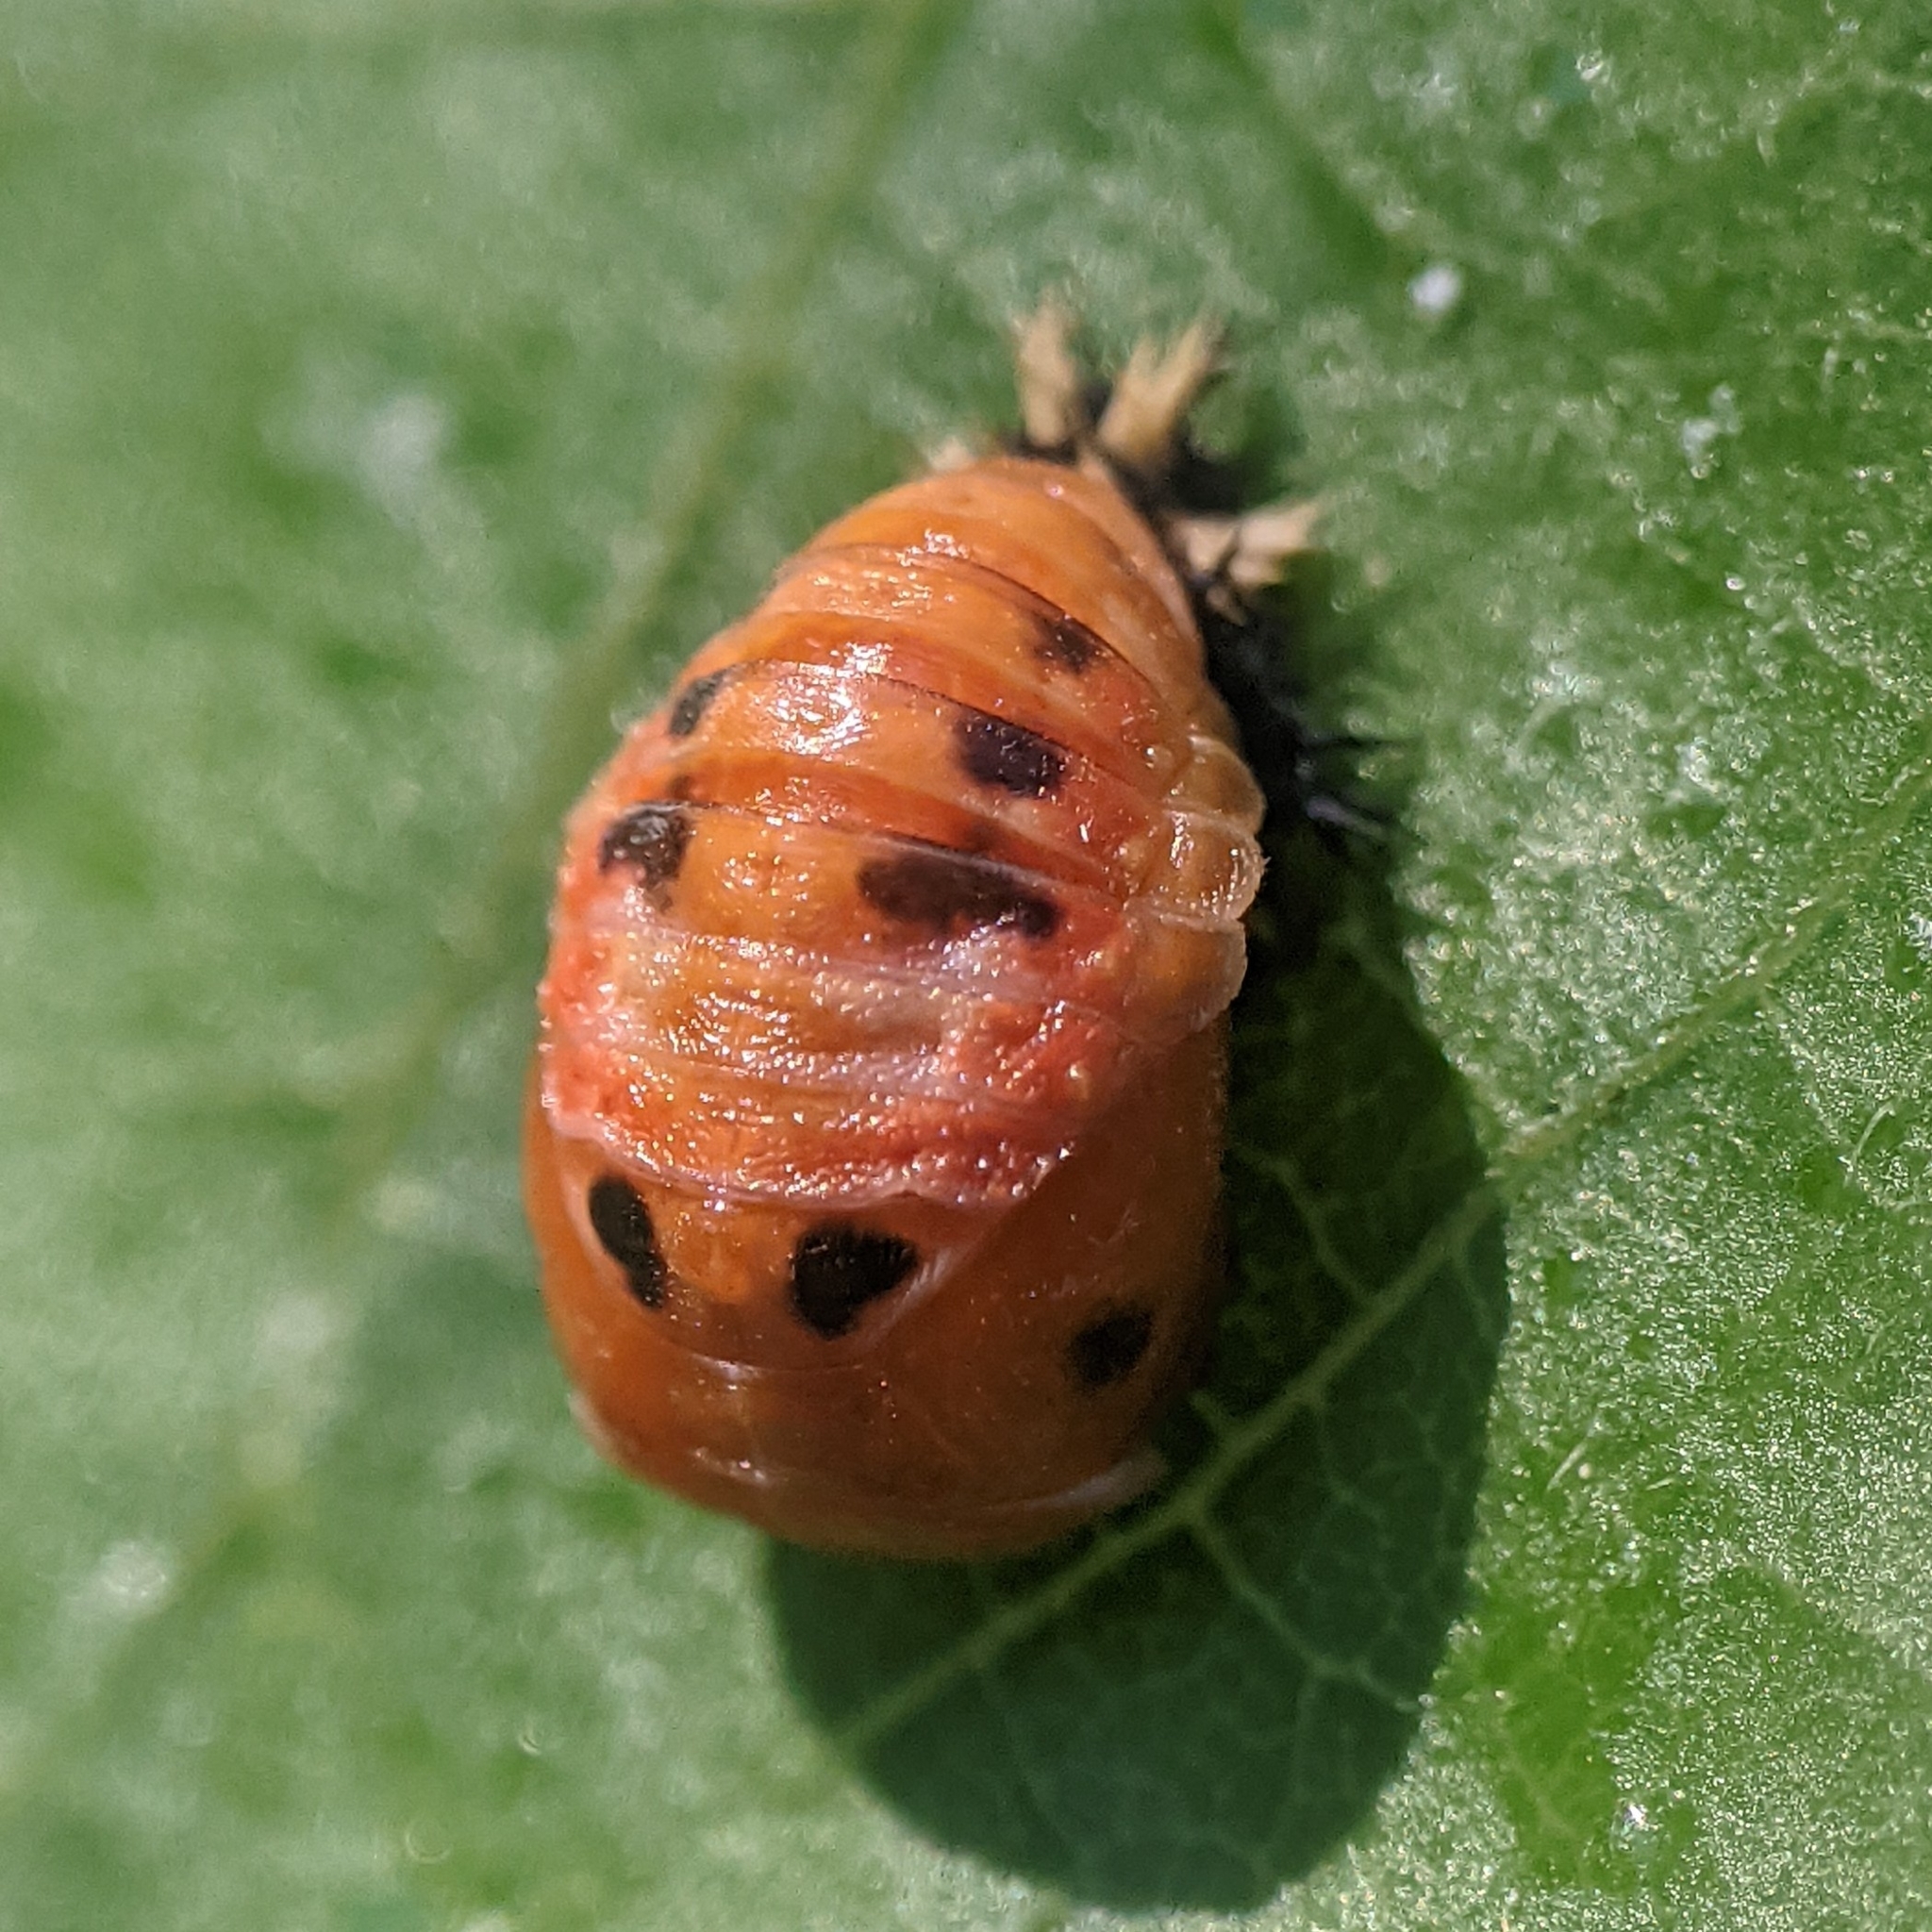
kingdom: Animalia
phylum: Arthropoda
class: Insecta
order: Coleoptera
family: Coccinellidae
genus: Harmonia
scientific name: Harmonia axyridis
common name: Harlequin ladybird
